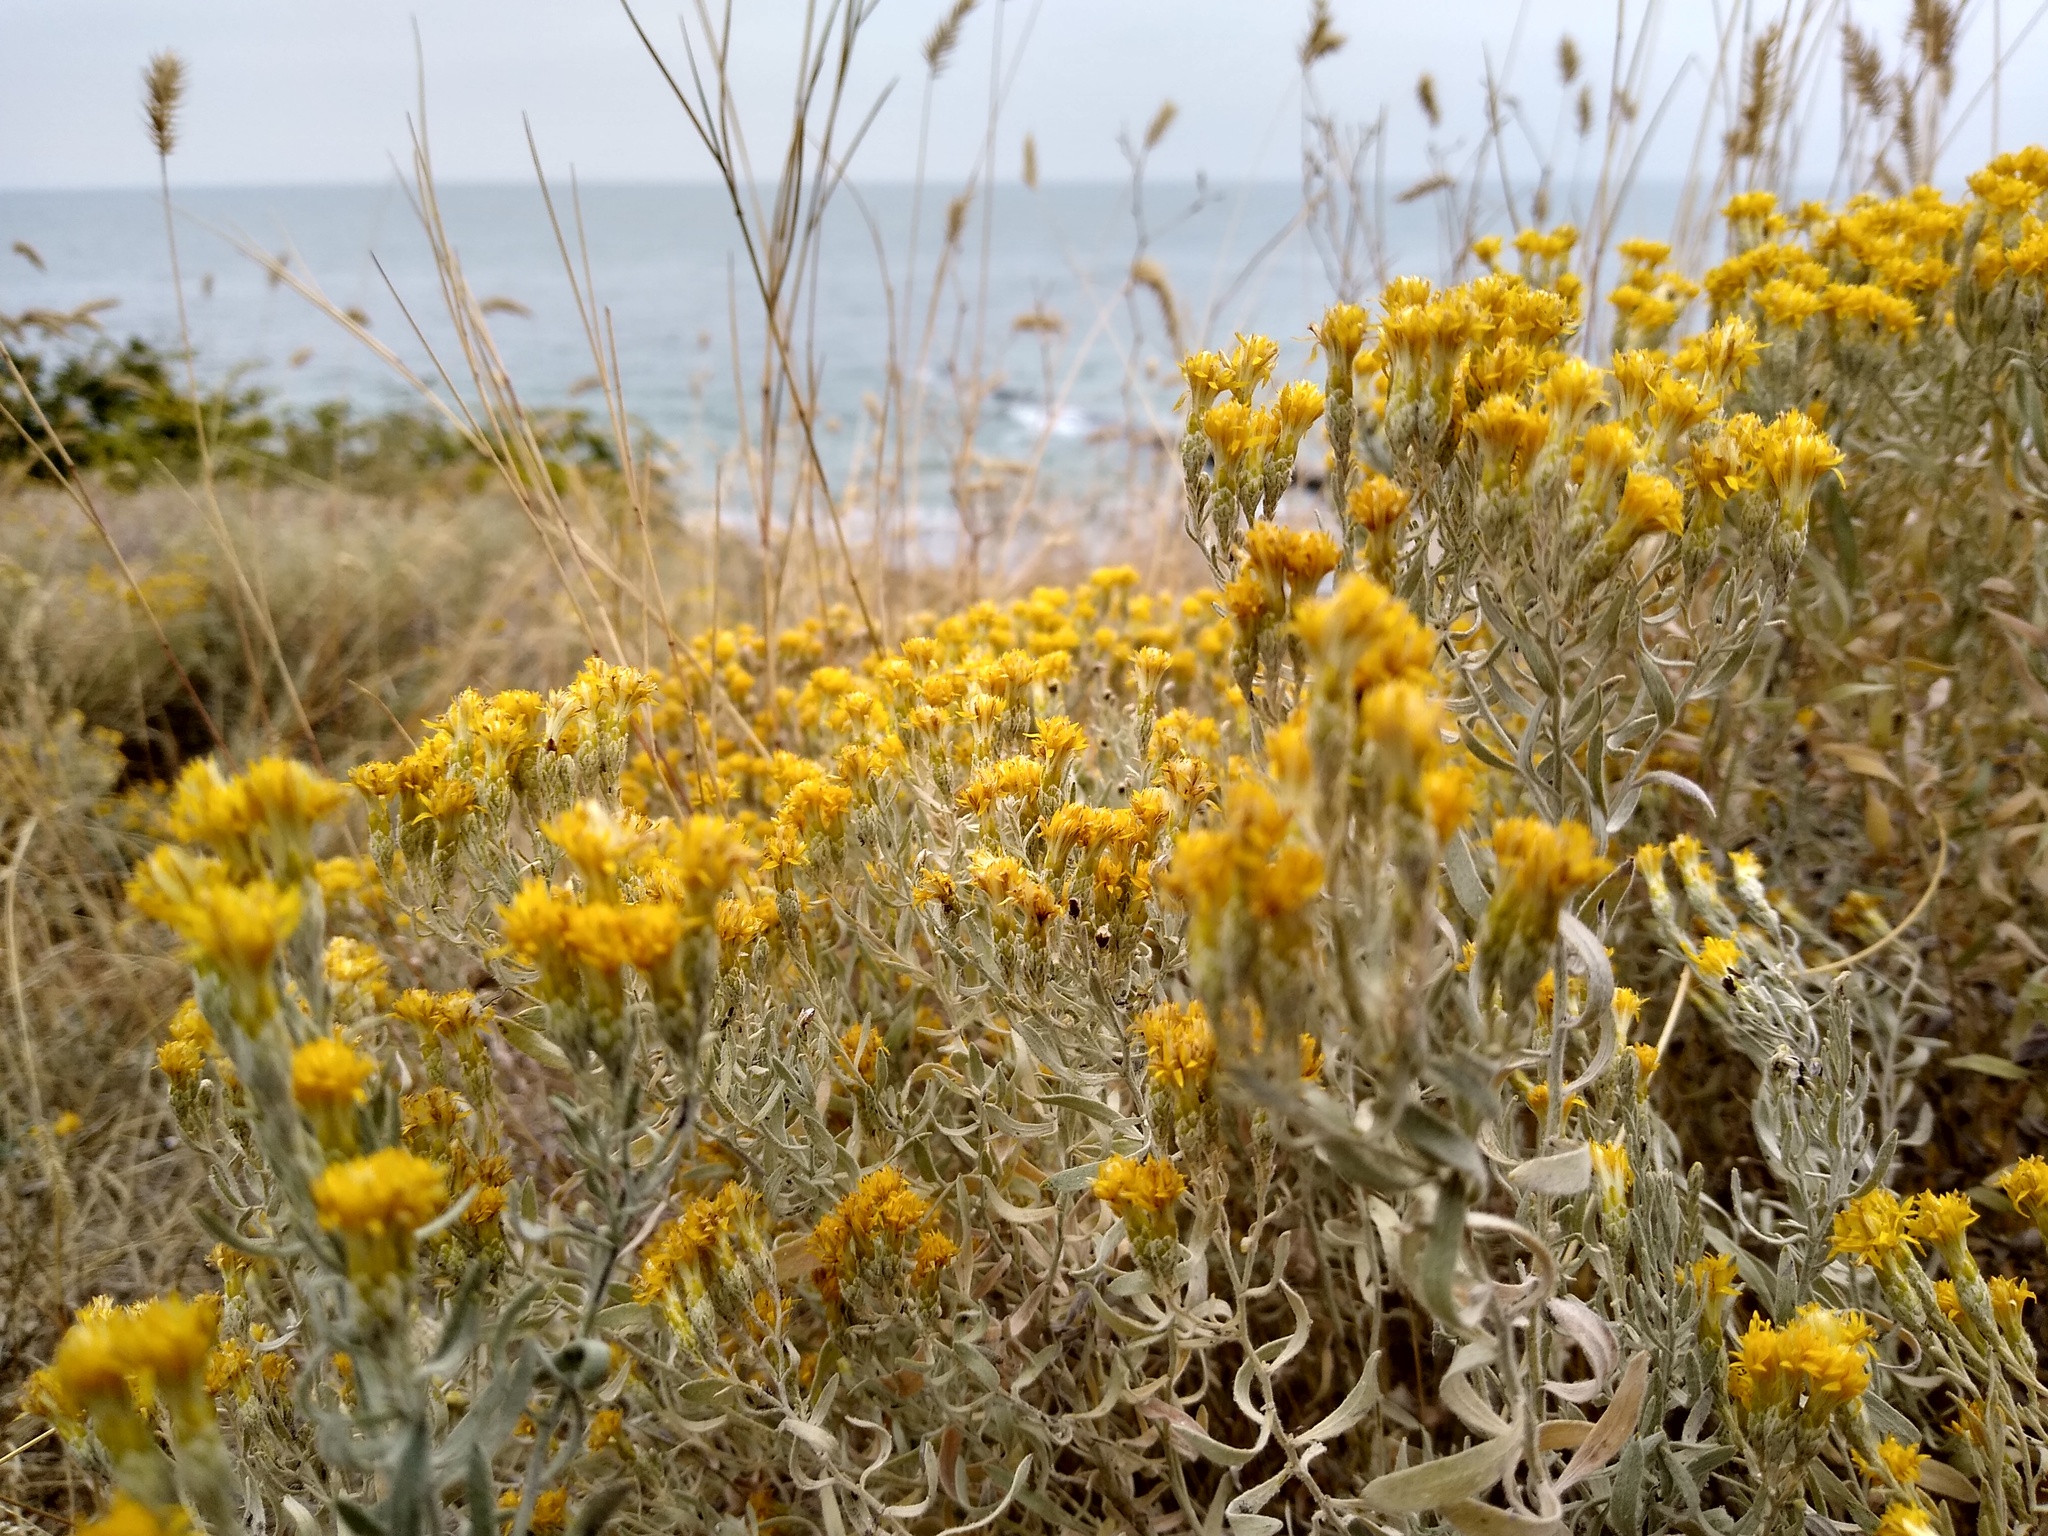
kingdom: Plantae
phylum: Tracheophyta
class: Magnoliopsida
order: Asterales
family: Asteraceae
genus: Galatella
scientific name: Galatella villosa
